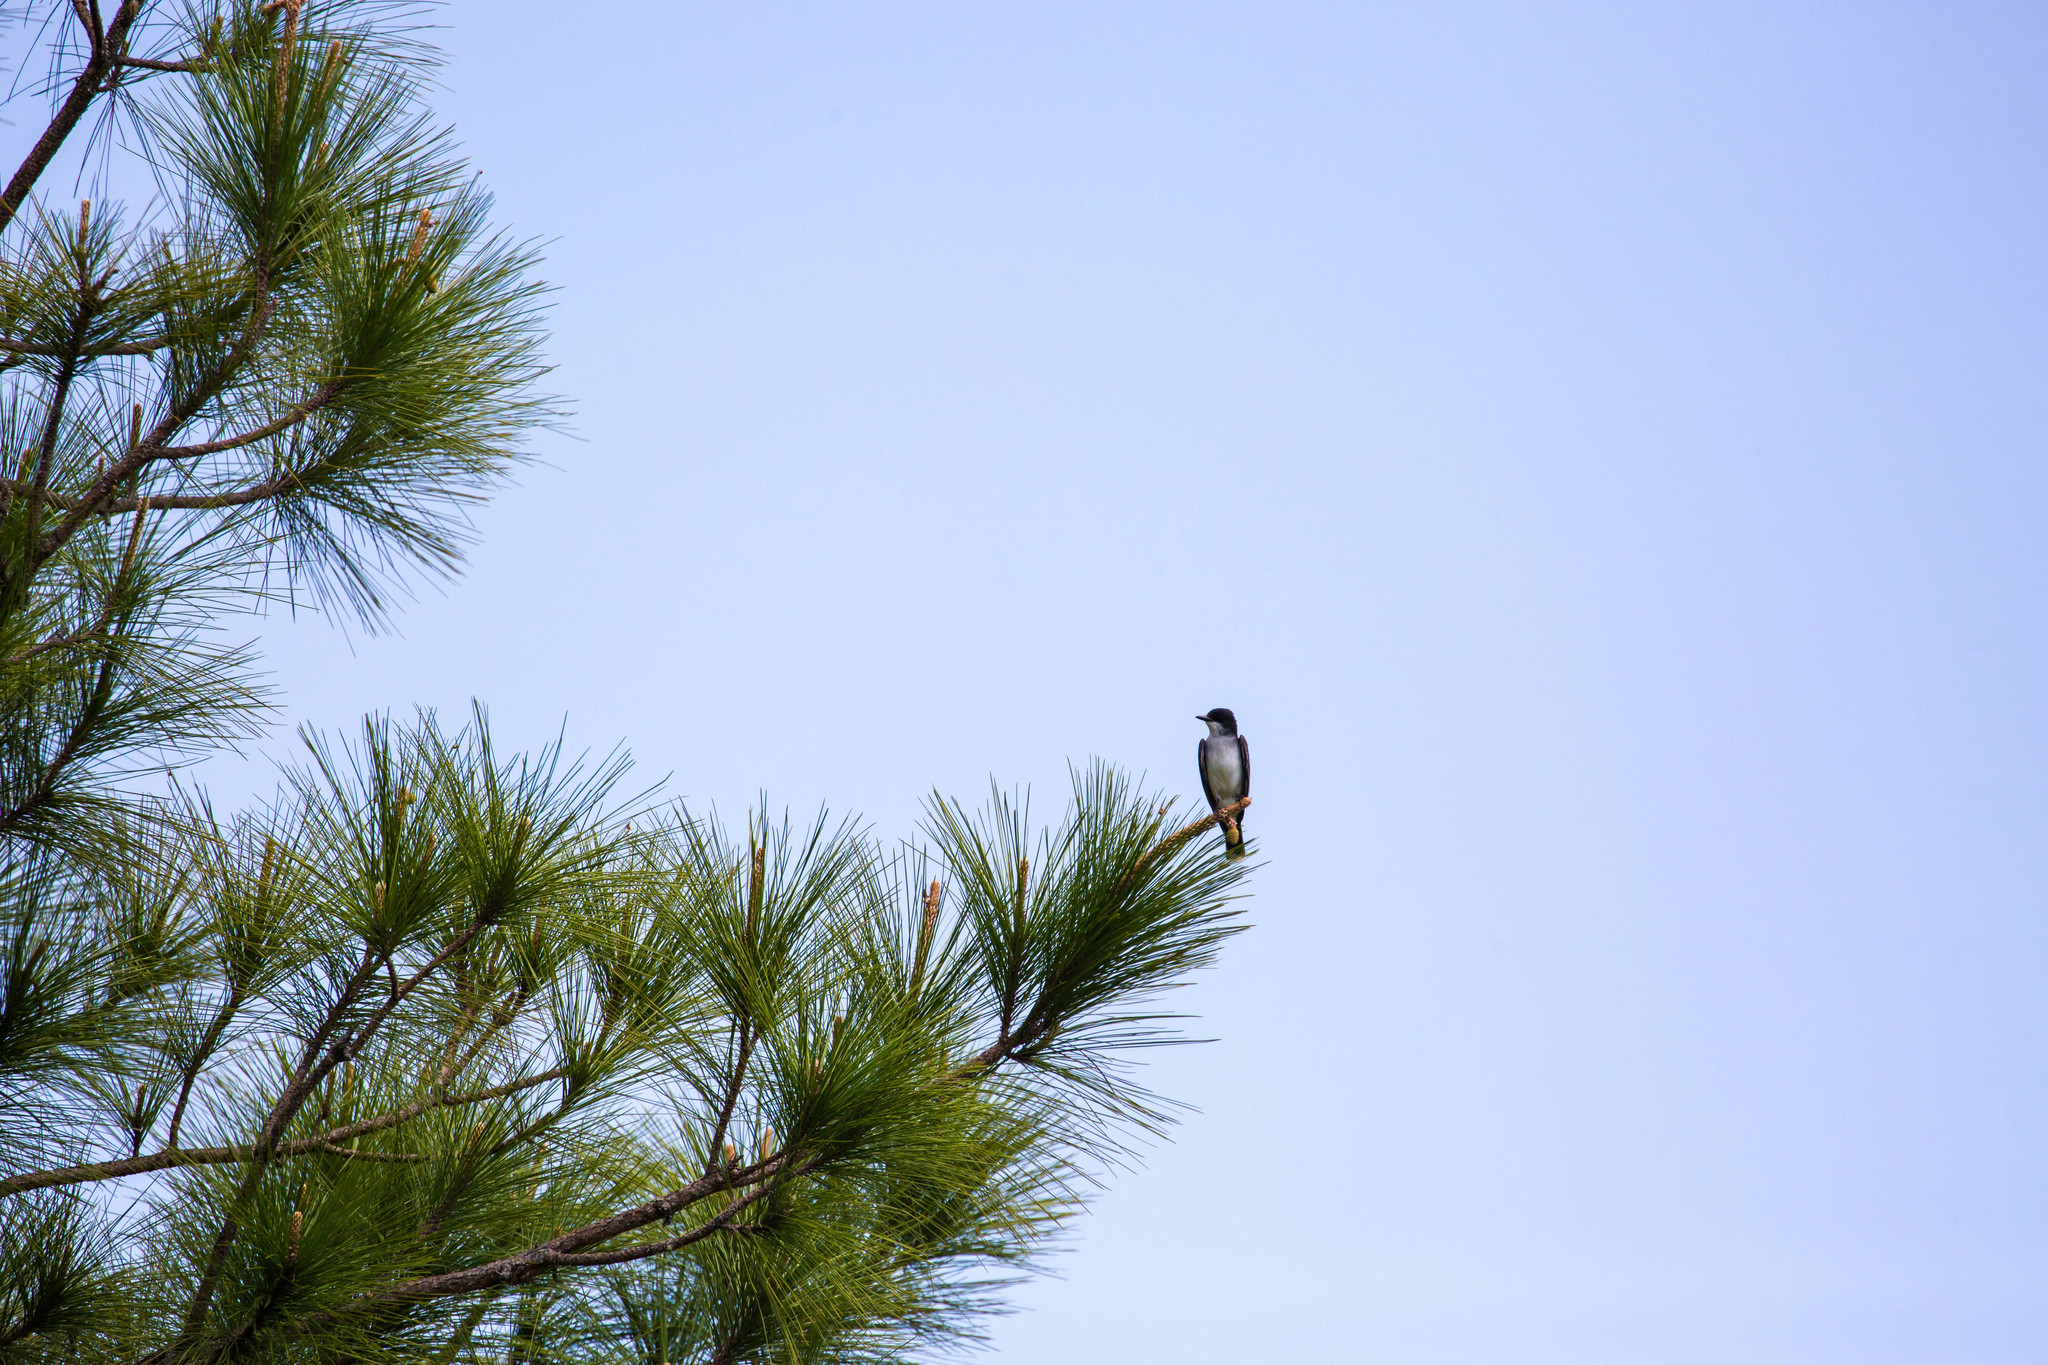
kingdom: Animalia
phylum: Chordata
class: Aves
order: Passeriformes
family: Tyrannidae
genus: Tyrannus
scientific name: Tyrannus tyrannus
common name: Eastern kingbird
